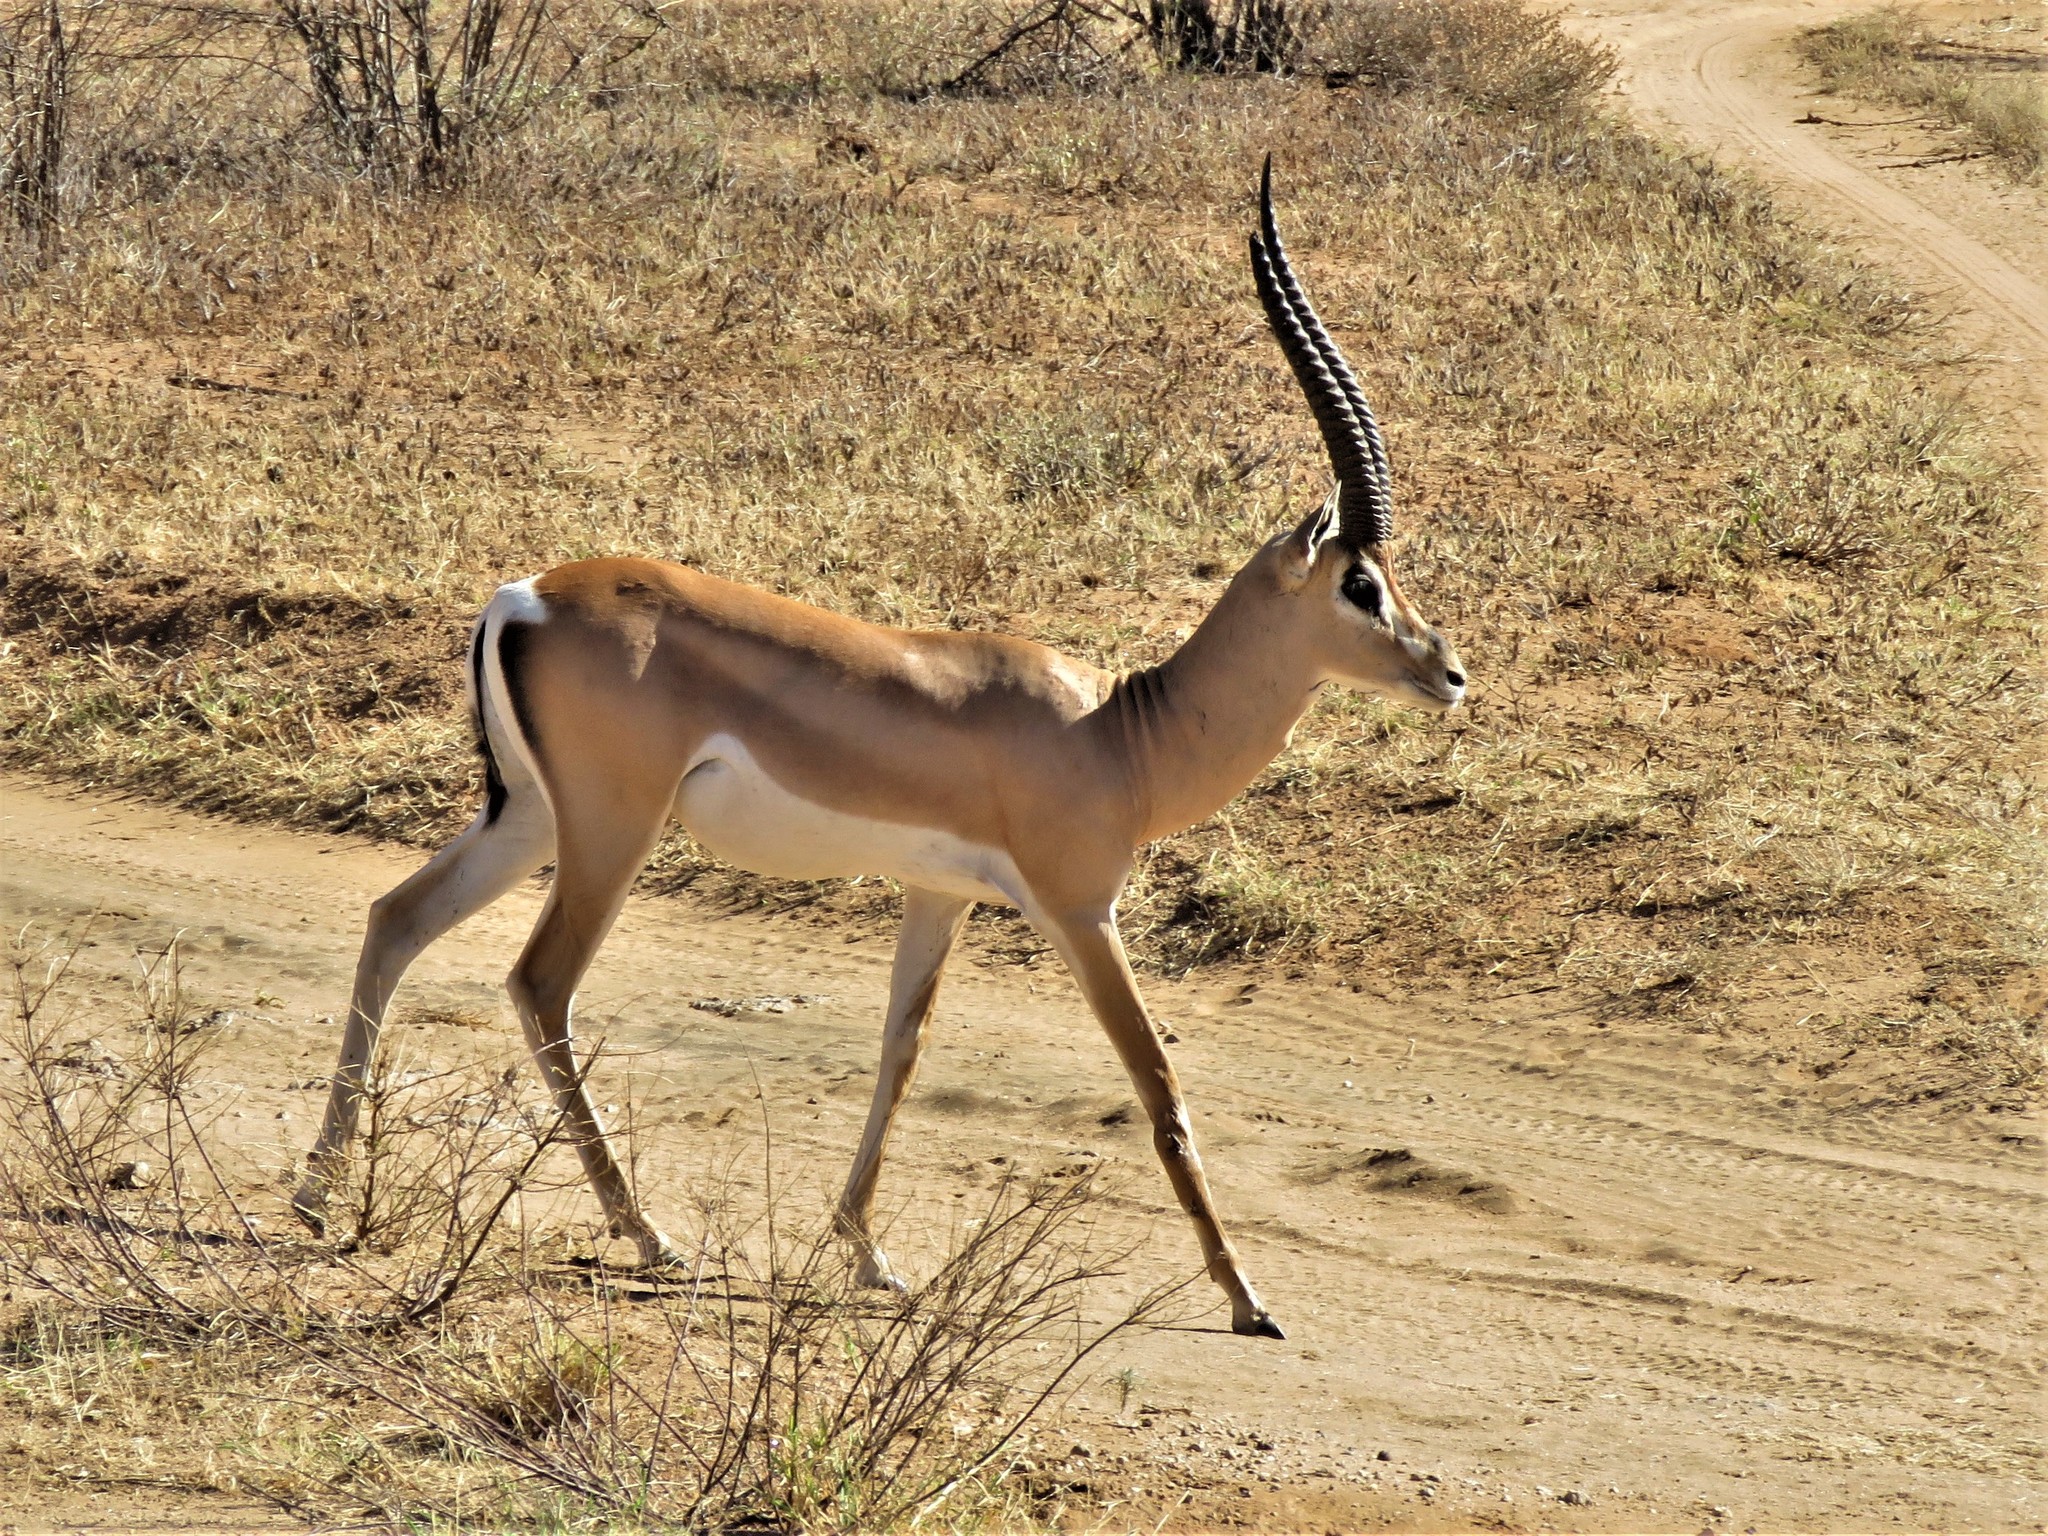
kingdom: Animalia
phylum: Chordata
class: Mammalia
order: Artiodactyla
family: Bovidae
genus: Nanger
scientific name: Nanger granti
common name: Grant's gazelle
